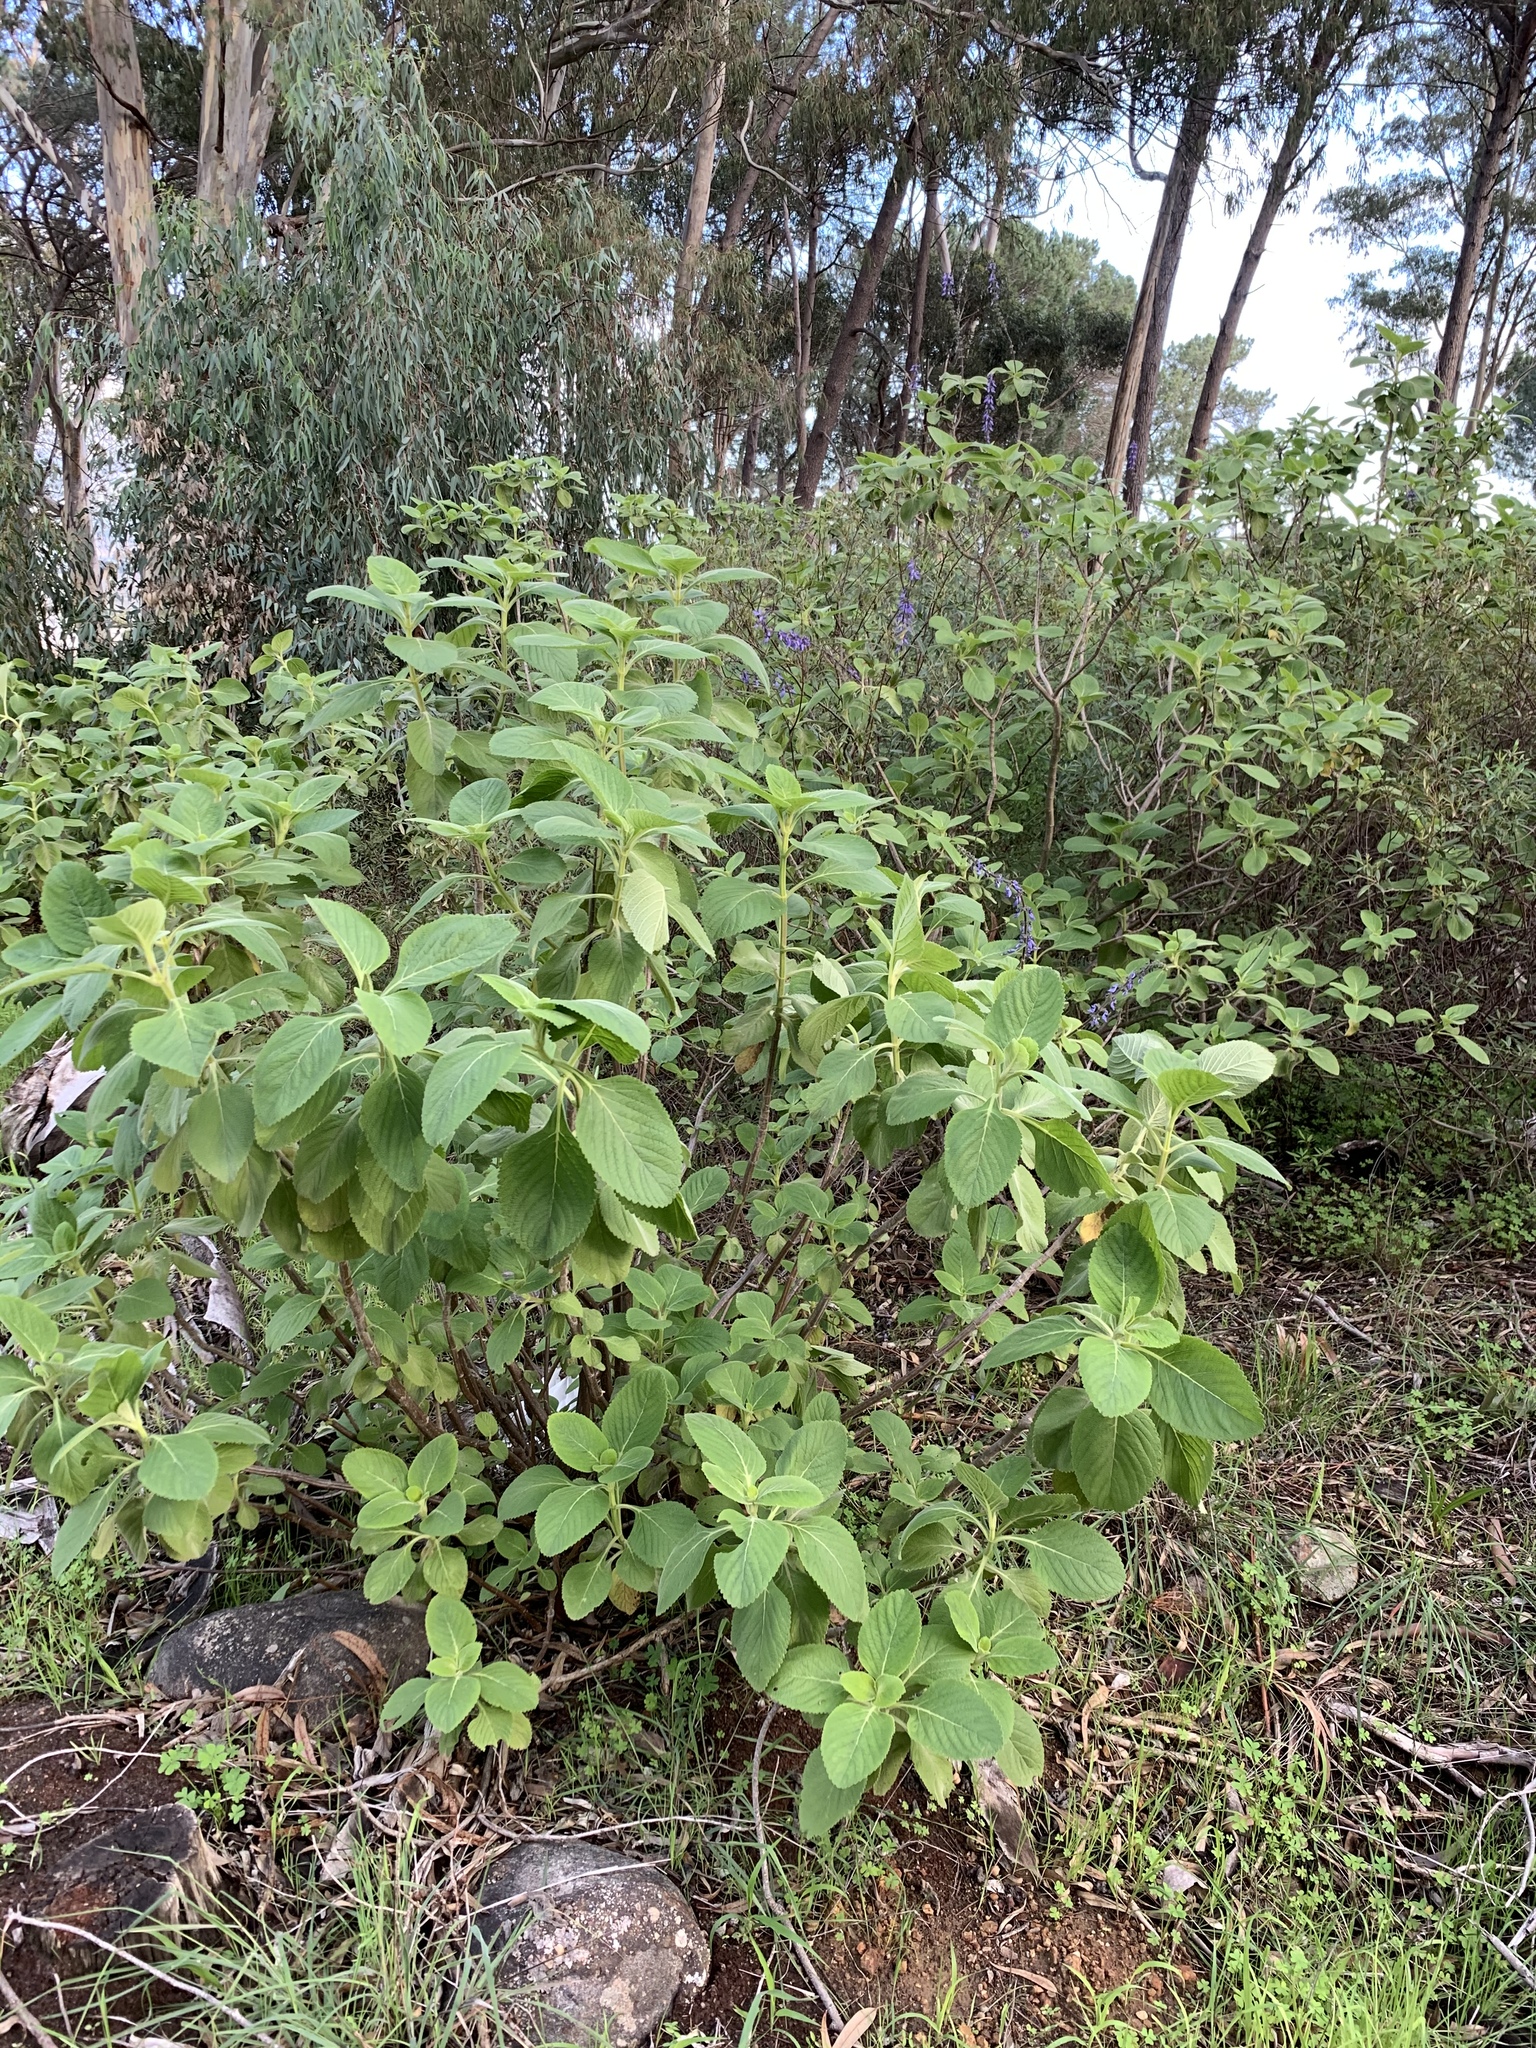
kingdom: Plantae
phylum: Tracheophyta
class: Magnoliopsida
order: Lamiales
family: Lamiaceae
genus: Coleus
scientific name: Coleus barbatus
